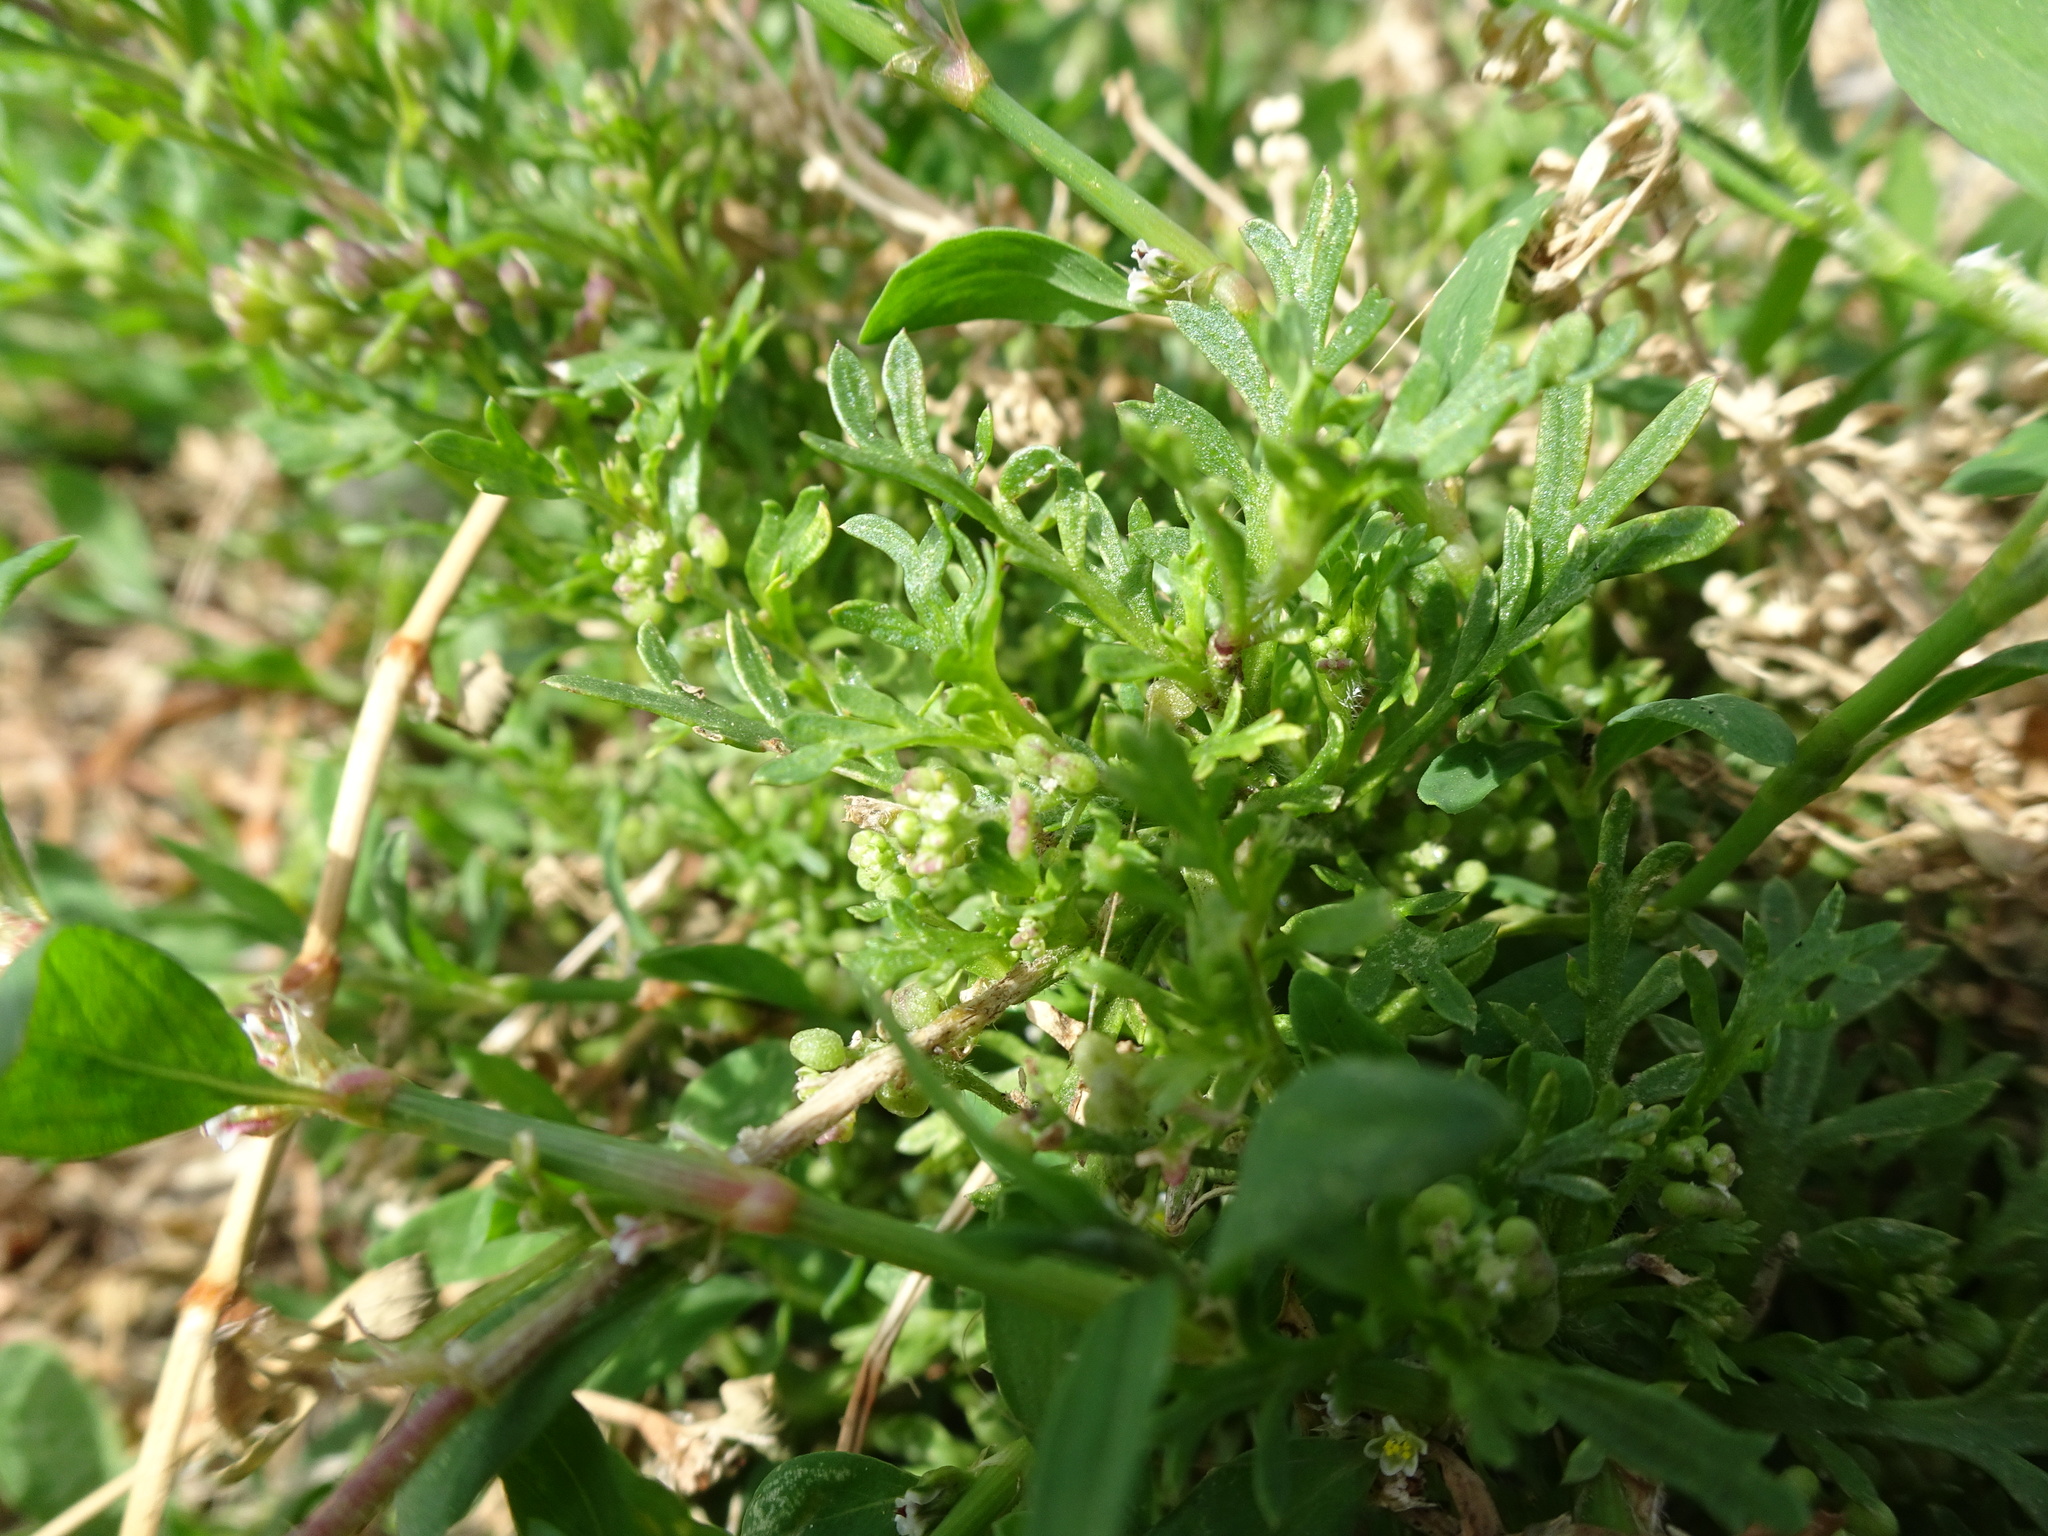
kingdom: Plantae
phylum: Tracheophyta
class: Magnoliopsida
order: Brassicales
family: Brassicaceae
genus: Lepidium
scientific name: Lepidium didymum
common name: Lesser swinecress
